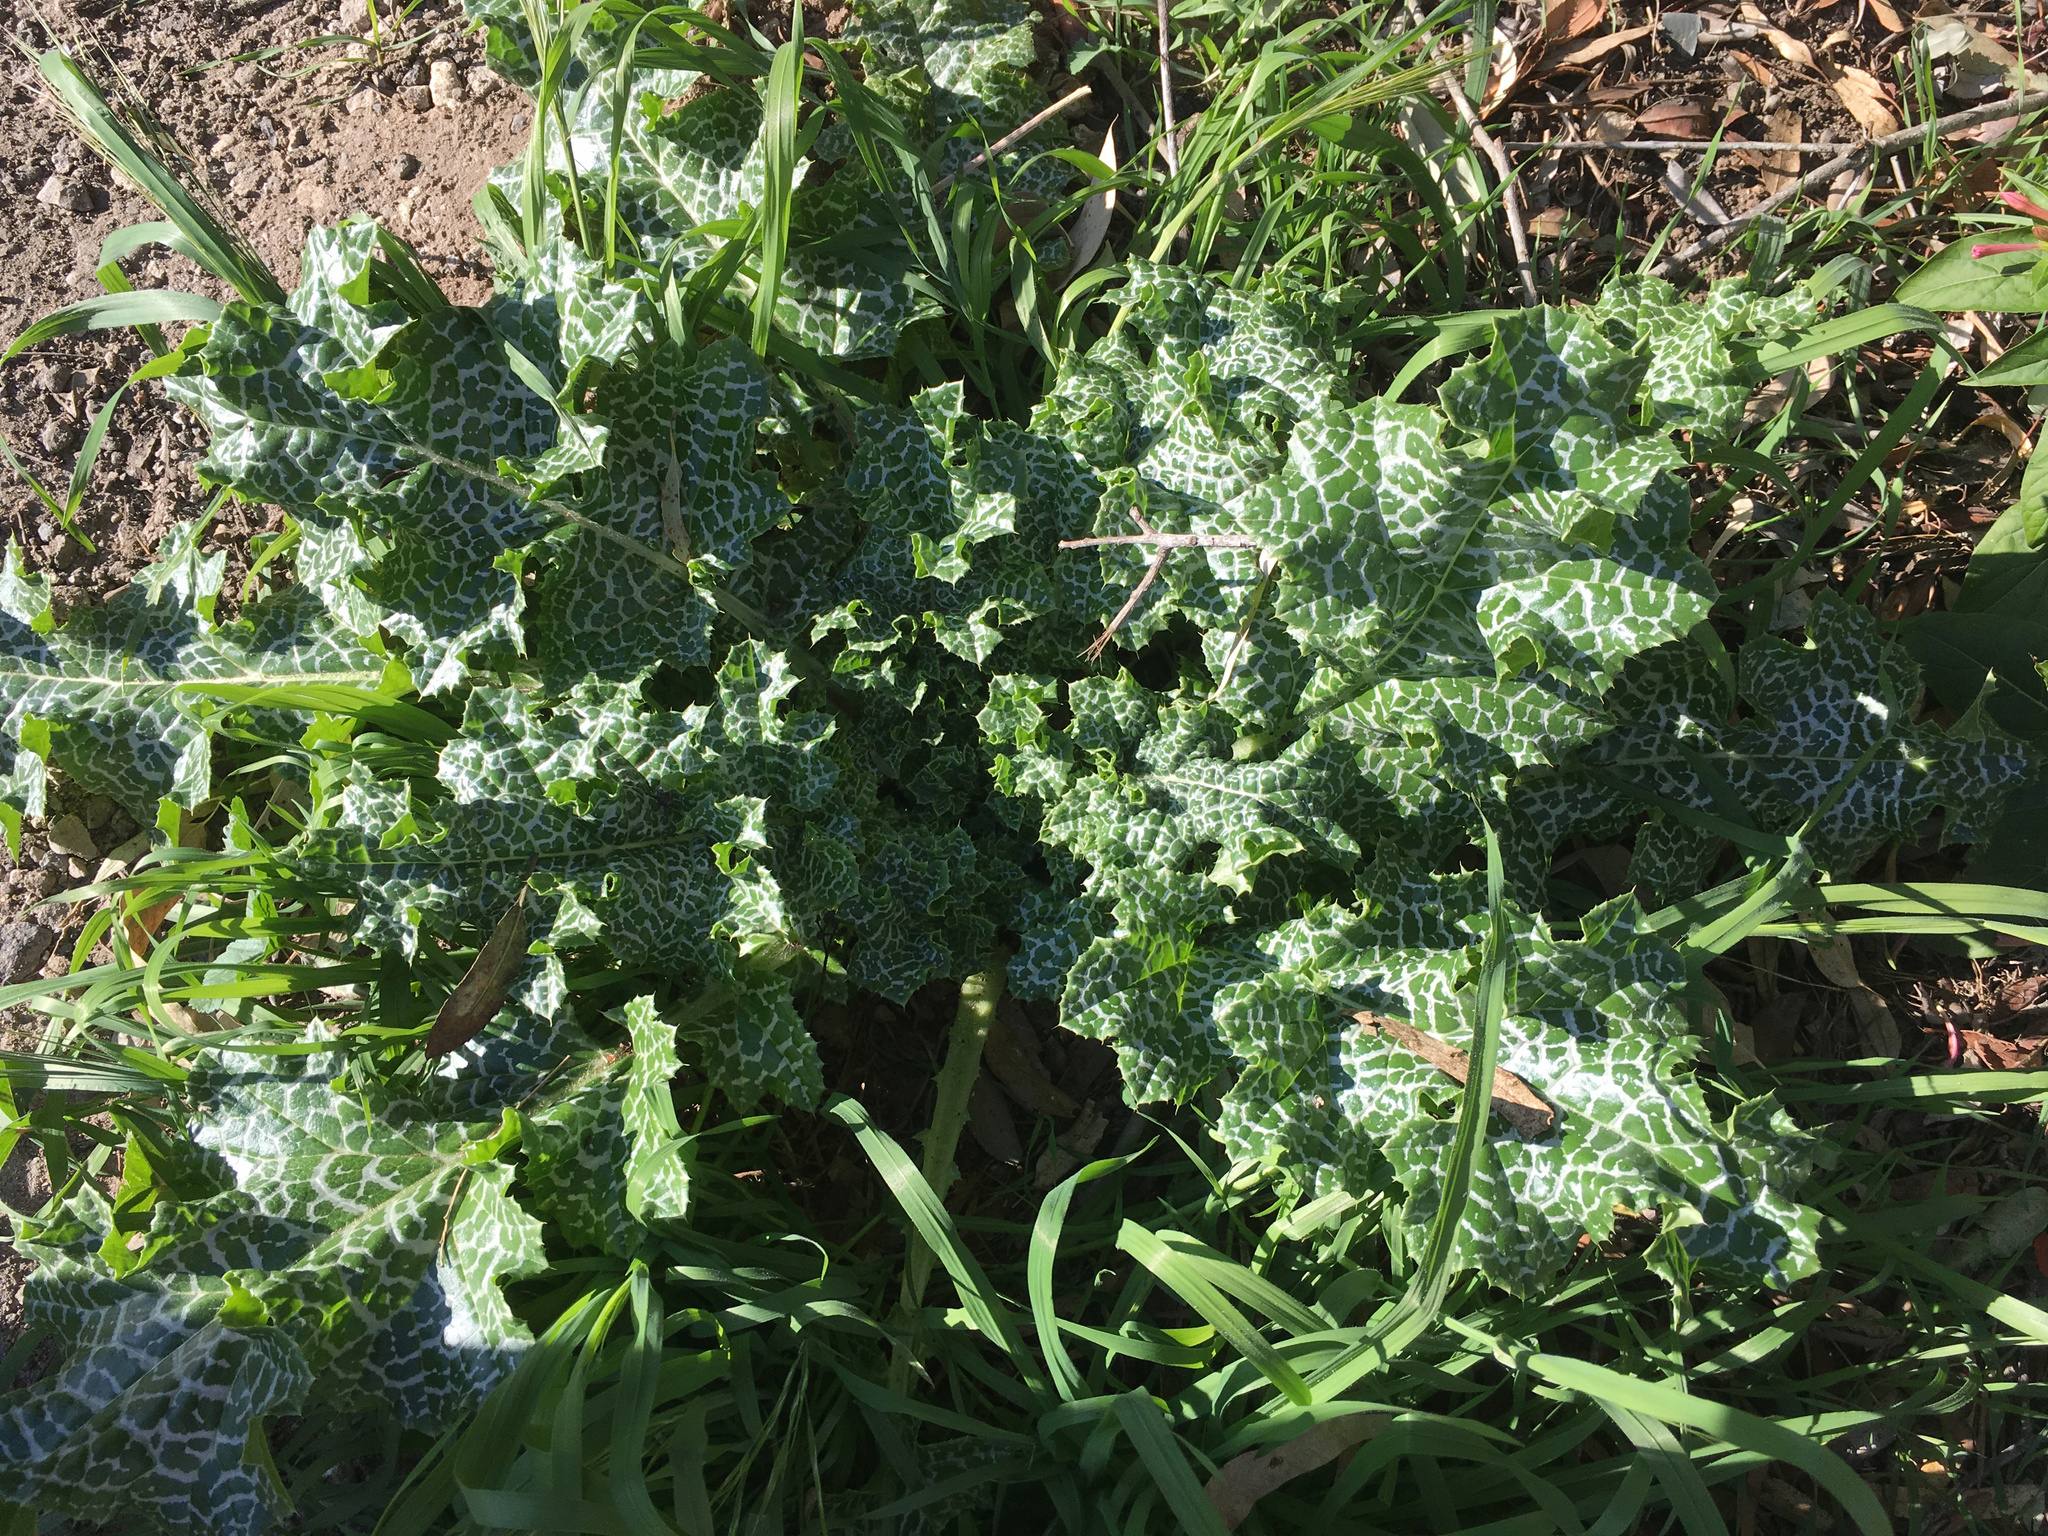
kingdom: Plantae
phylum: Tracheophyta
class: Magnoliopsida
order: Asterales
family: Asteraceae
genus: Silybum
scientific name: Silybum marianum
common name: Milk thistle
